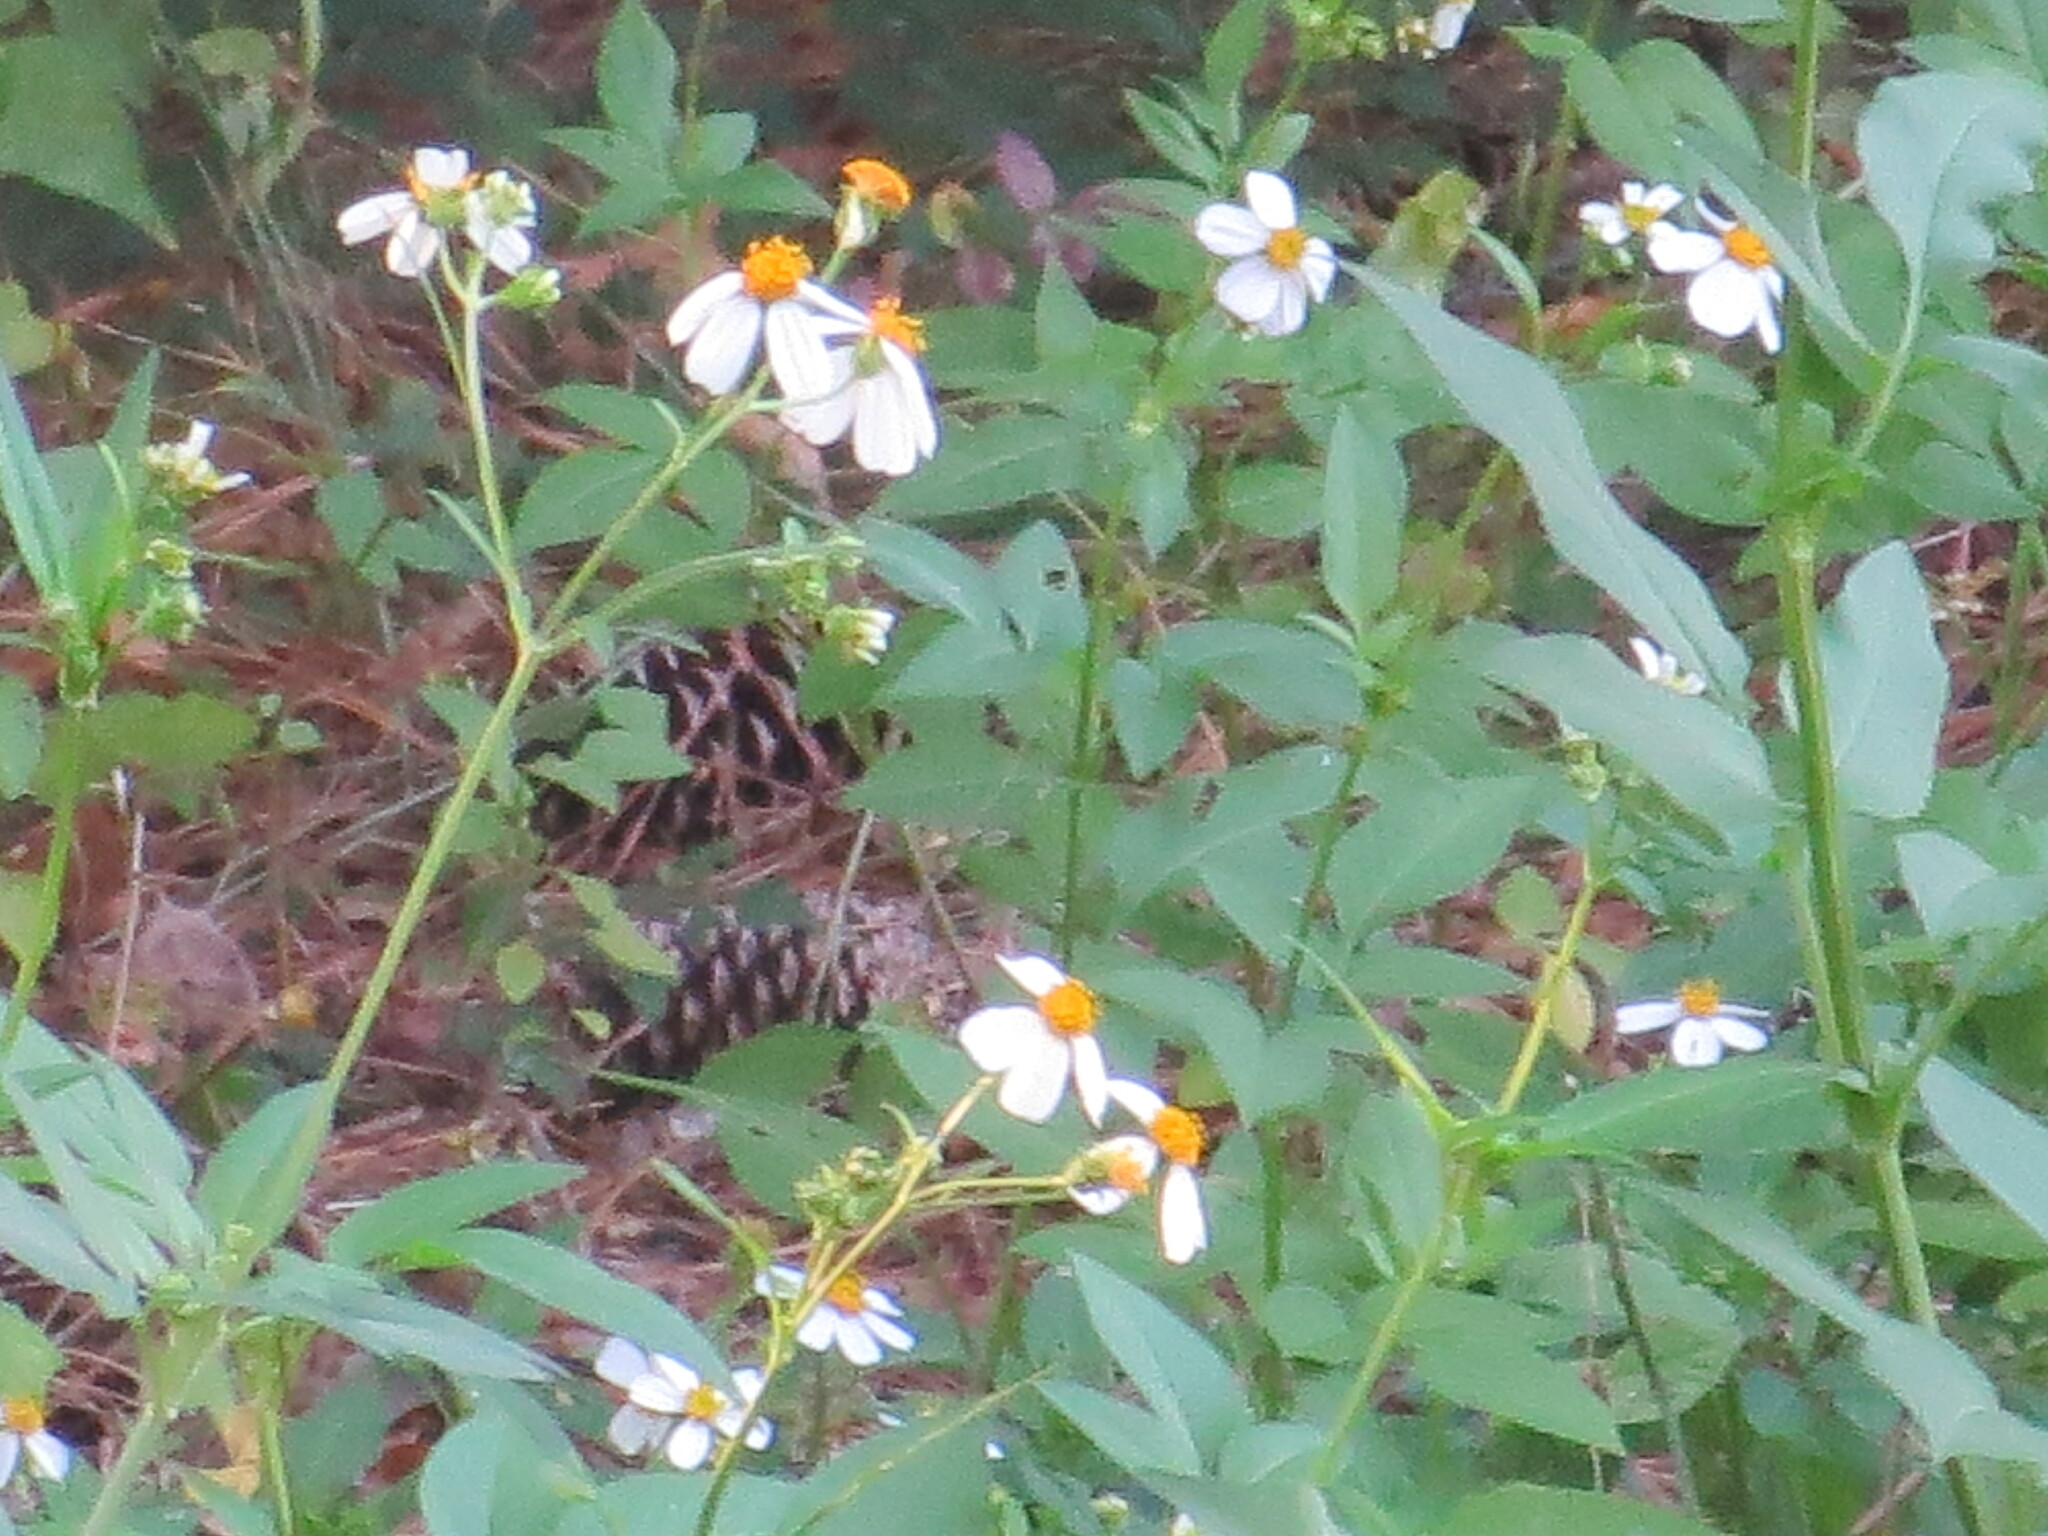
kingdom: Plantae
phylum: Tracheophyta
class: Magnoliopsida
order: Asterales
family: Asteraceae
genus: Bidens
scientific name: Bidens alba
